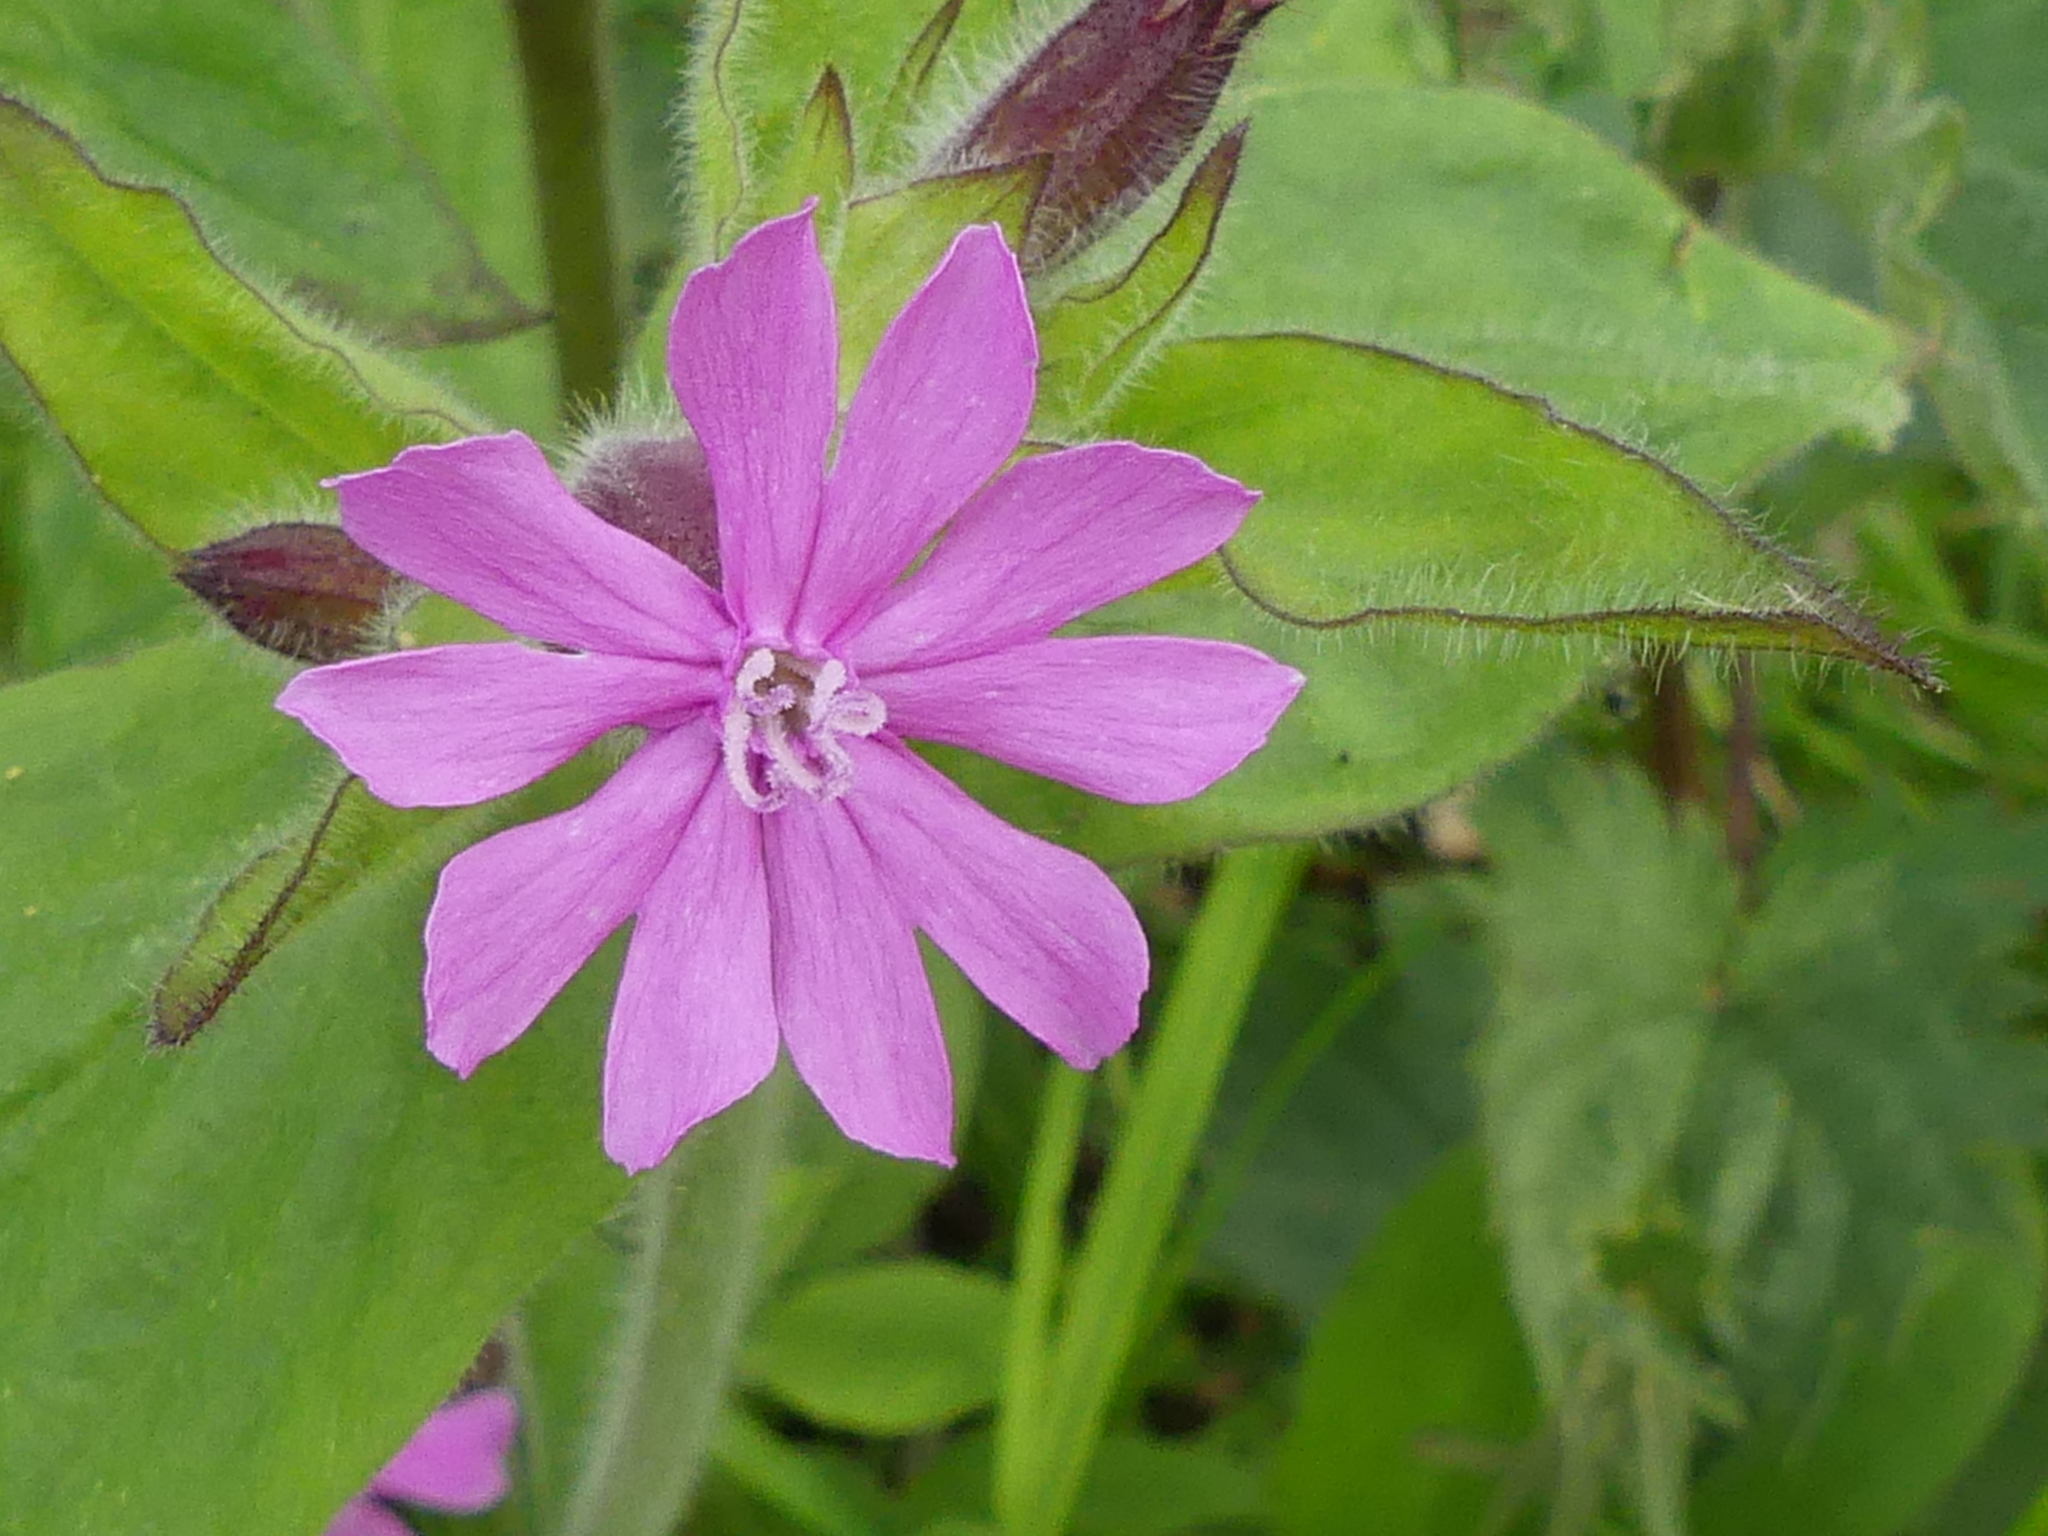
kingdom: Plantae
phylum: Tracheophyta
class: Magnoliopsida
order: Caryophyllales
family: Caryophyllaceae
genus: Silene
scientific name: Silene dioica
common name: Red campion
